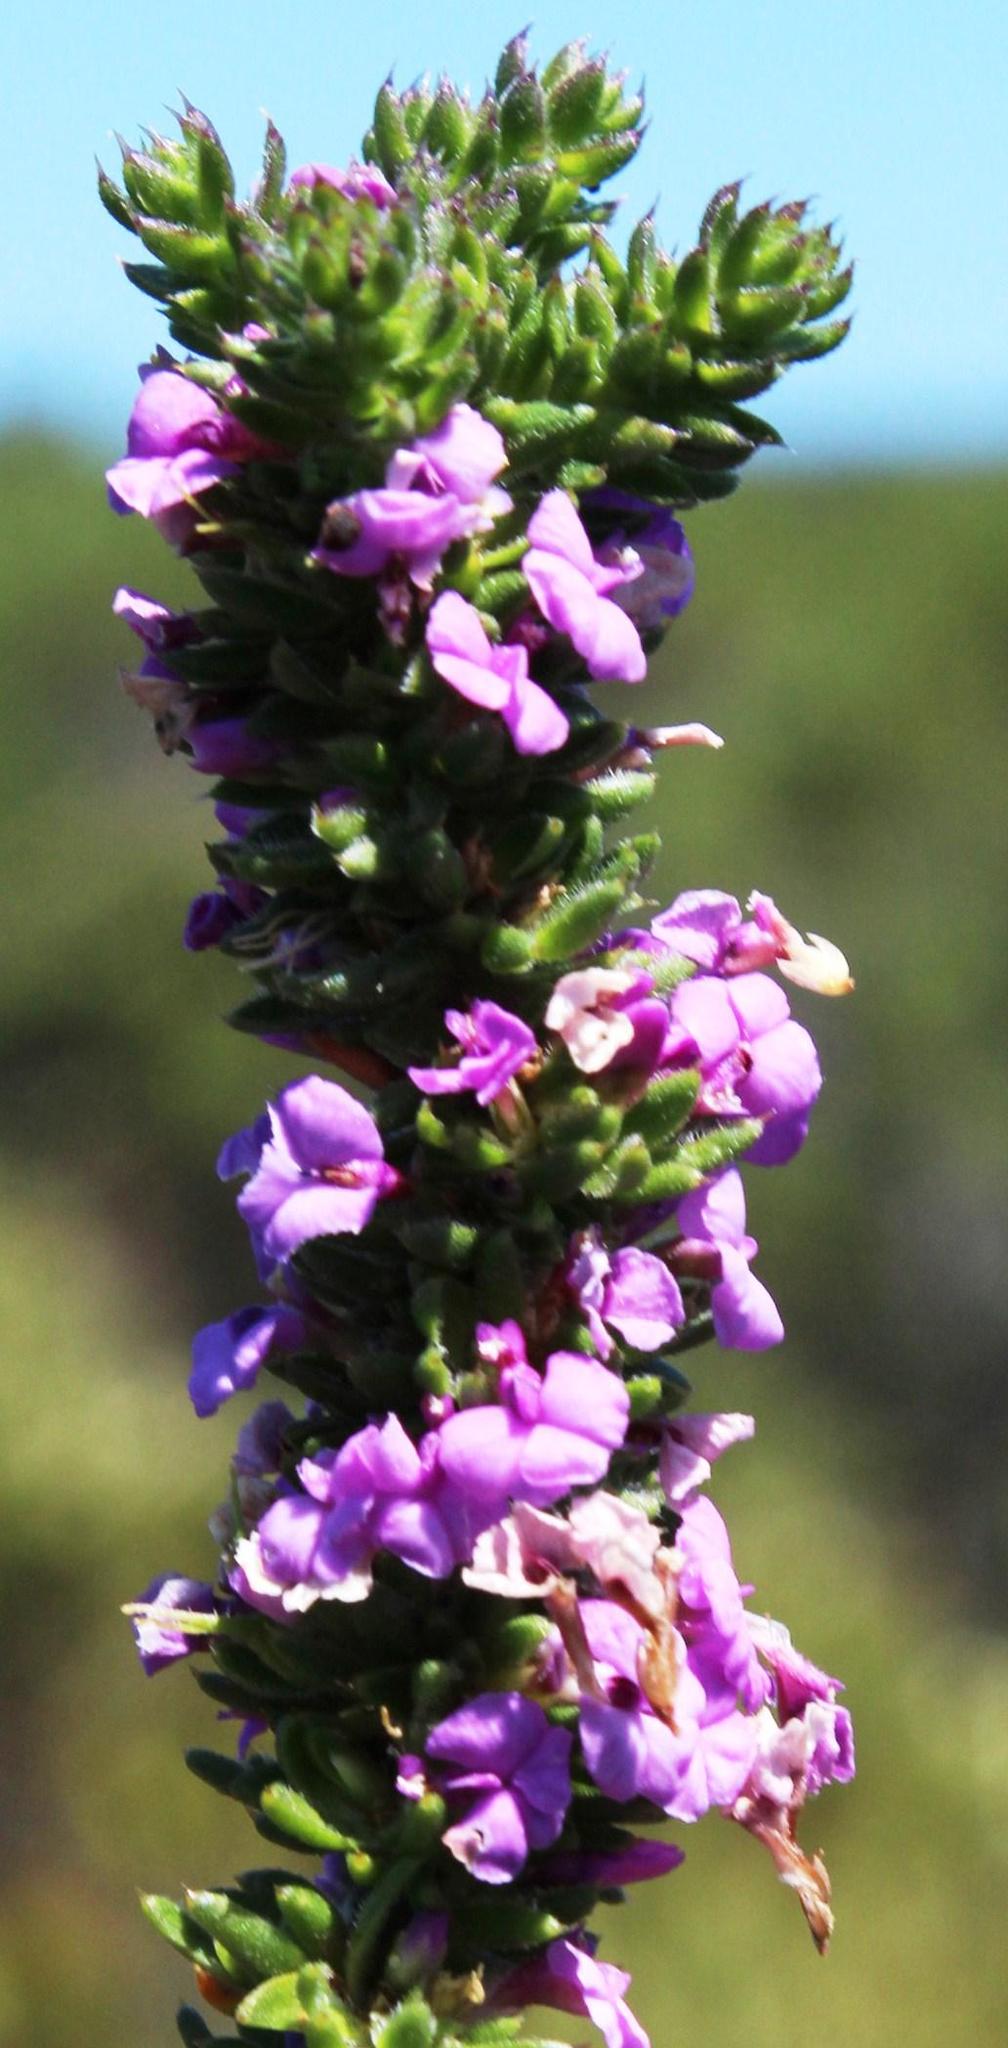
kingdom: Plantae
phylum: Tracheophyta
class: Magnoliopsida
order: Fabales
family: Polygalaceae
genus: Muraltia
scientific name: Muraltia satureioides
